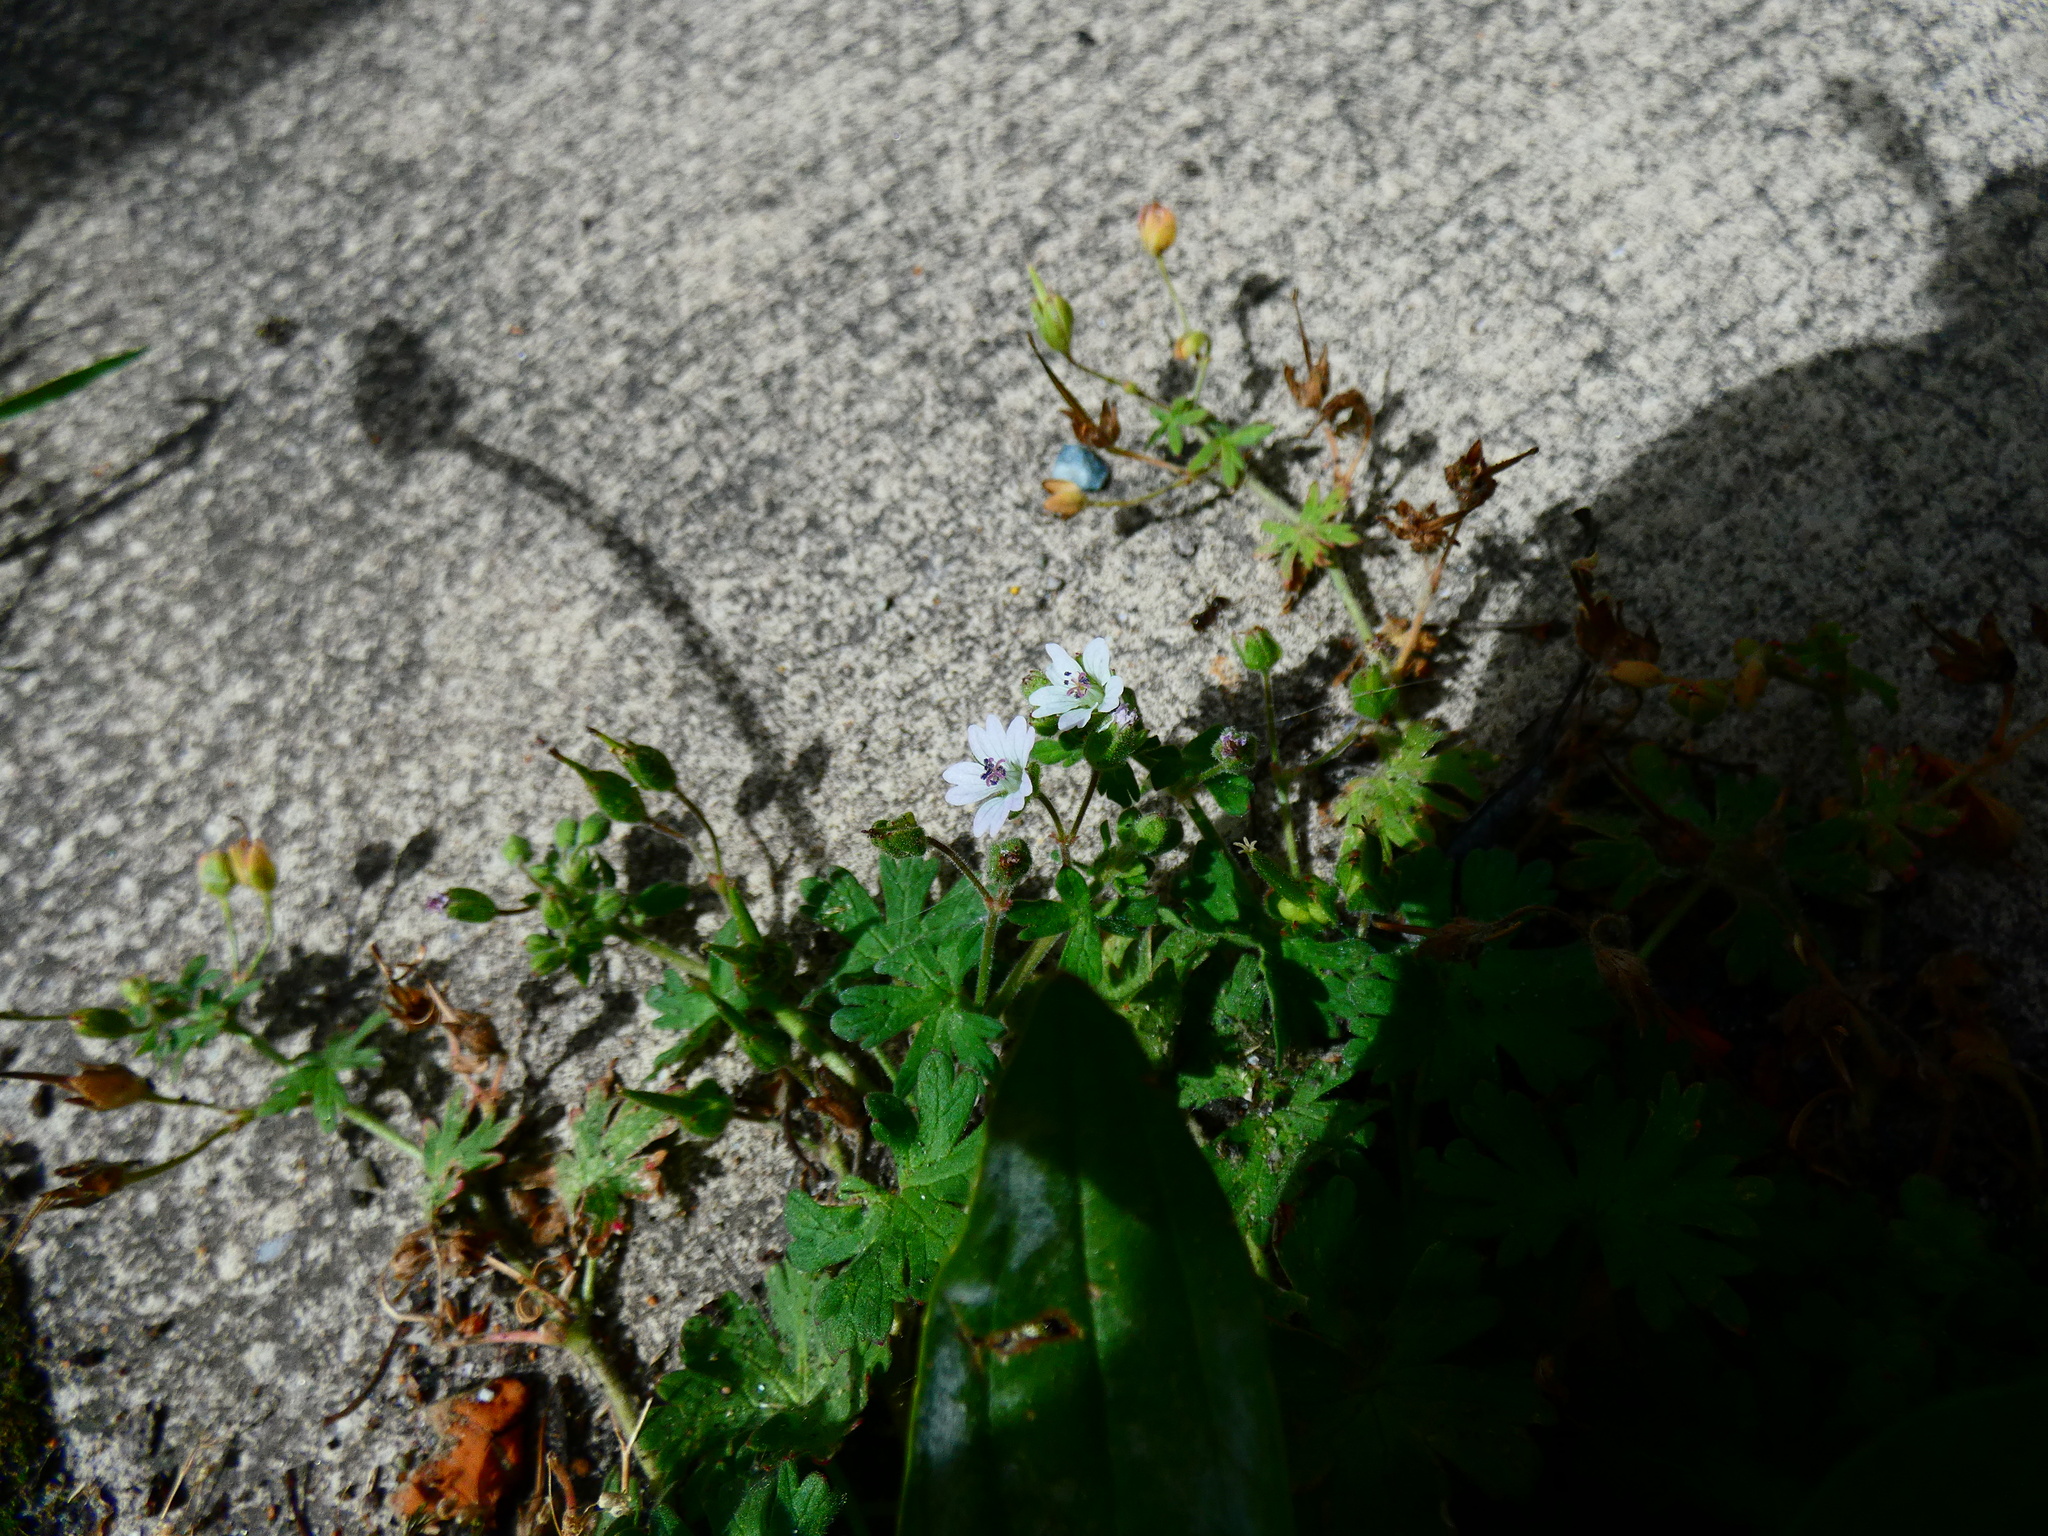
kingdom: Plantae
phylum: Tracheophyta
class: Magnoliopsida
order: Geraniales
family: Geraniaceae
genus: Geranium
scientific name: Geranium molle
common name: Dove's-foot crane's-bill
